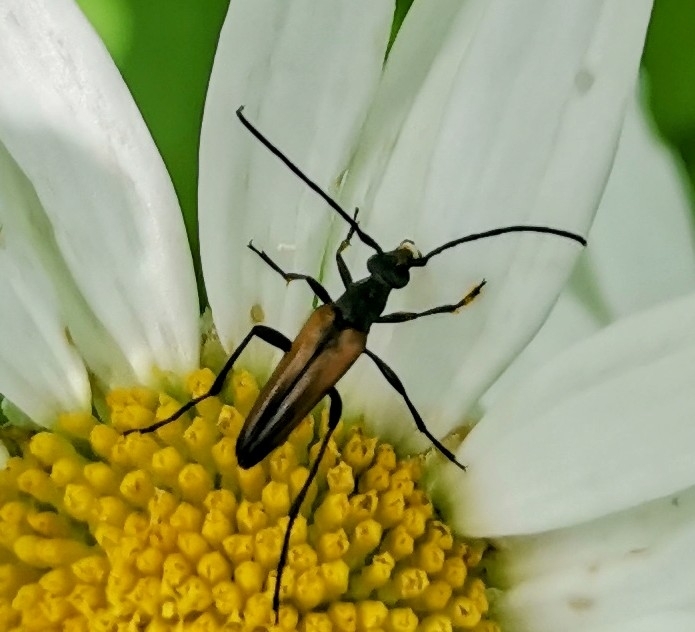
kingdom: Animalia
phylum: Arthropoda
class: Insecta
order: Coleoptera
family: Cerambycidae
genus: Stenurella
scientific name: Stenurella melanura
